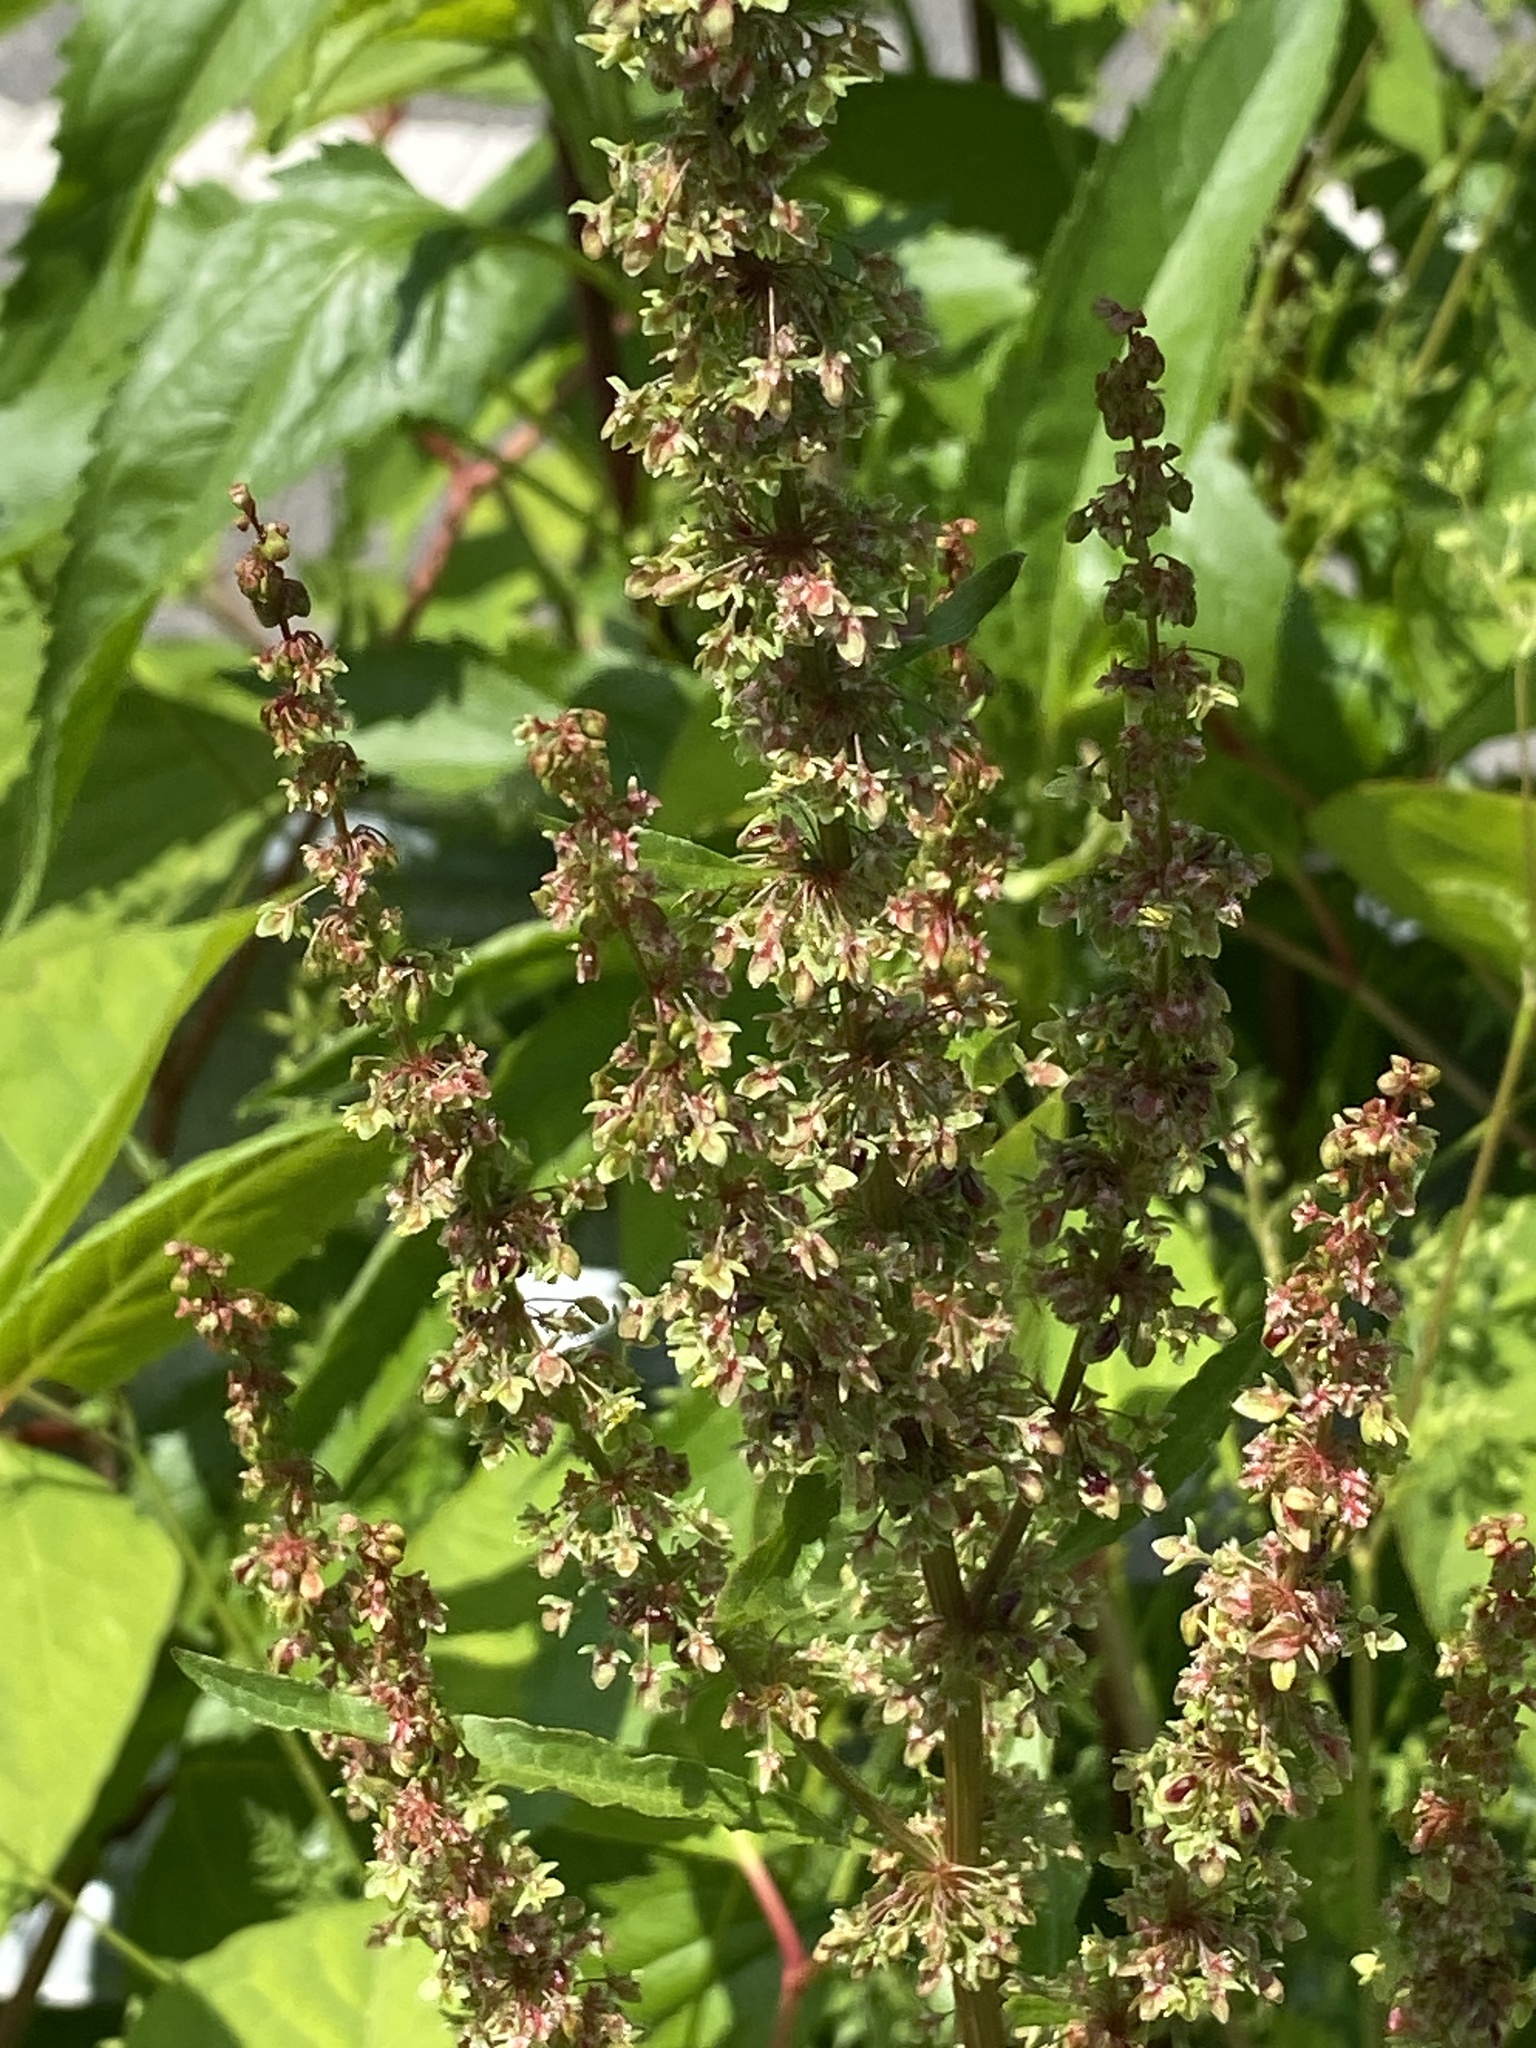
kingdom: Plantae
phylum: Tracheophyta
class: Magnoliopsida
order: Caryophyllales
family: Polygonaceae
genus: Rumex
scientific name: Rumex crispus
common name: Curled dock
